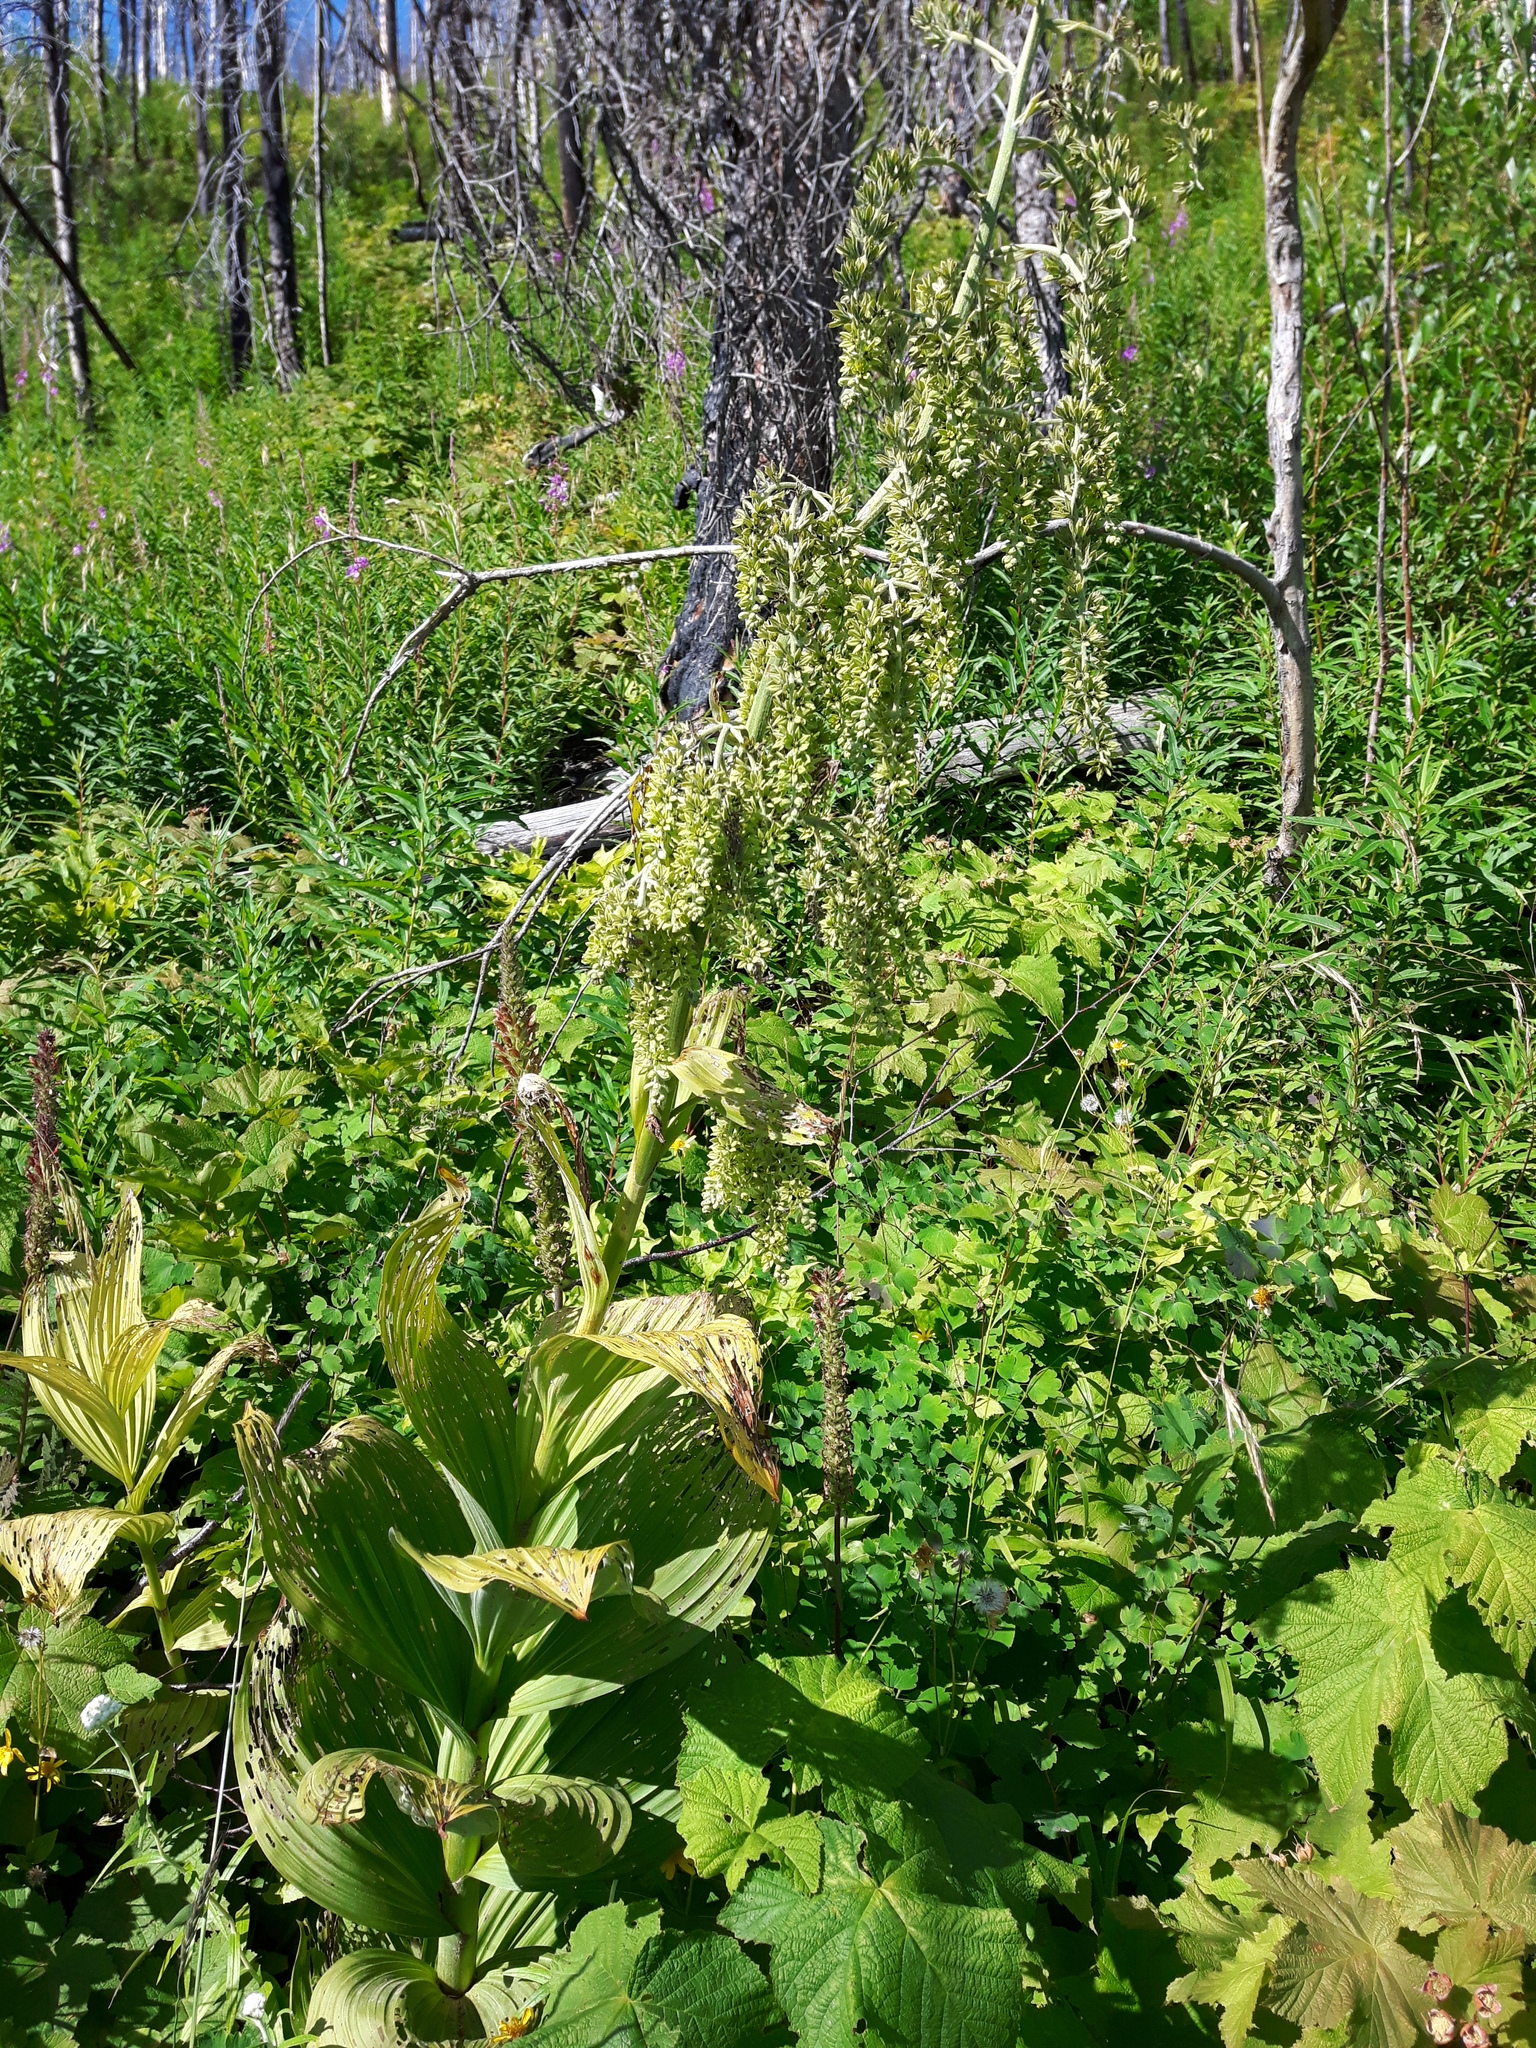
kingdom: Plantae
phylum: Tracheophyta
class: Liliopsida
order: Liliales
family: Melanthiaceae
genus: Veratrum
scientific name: Veratrum viride
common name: American false hellebore
